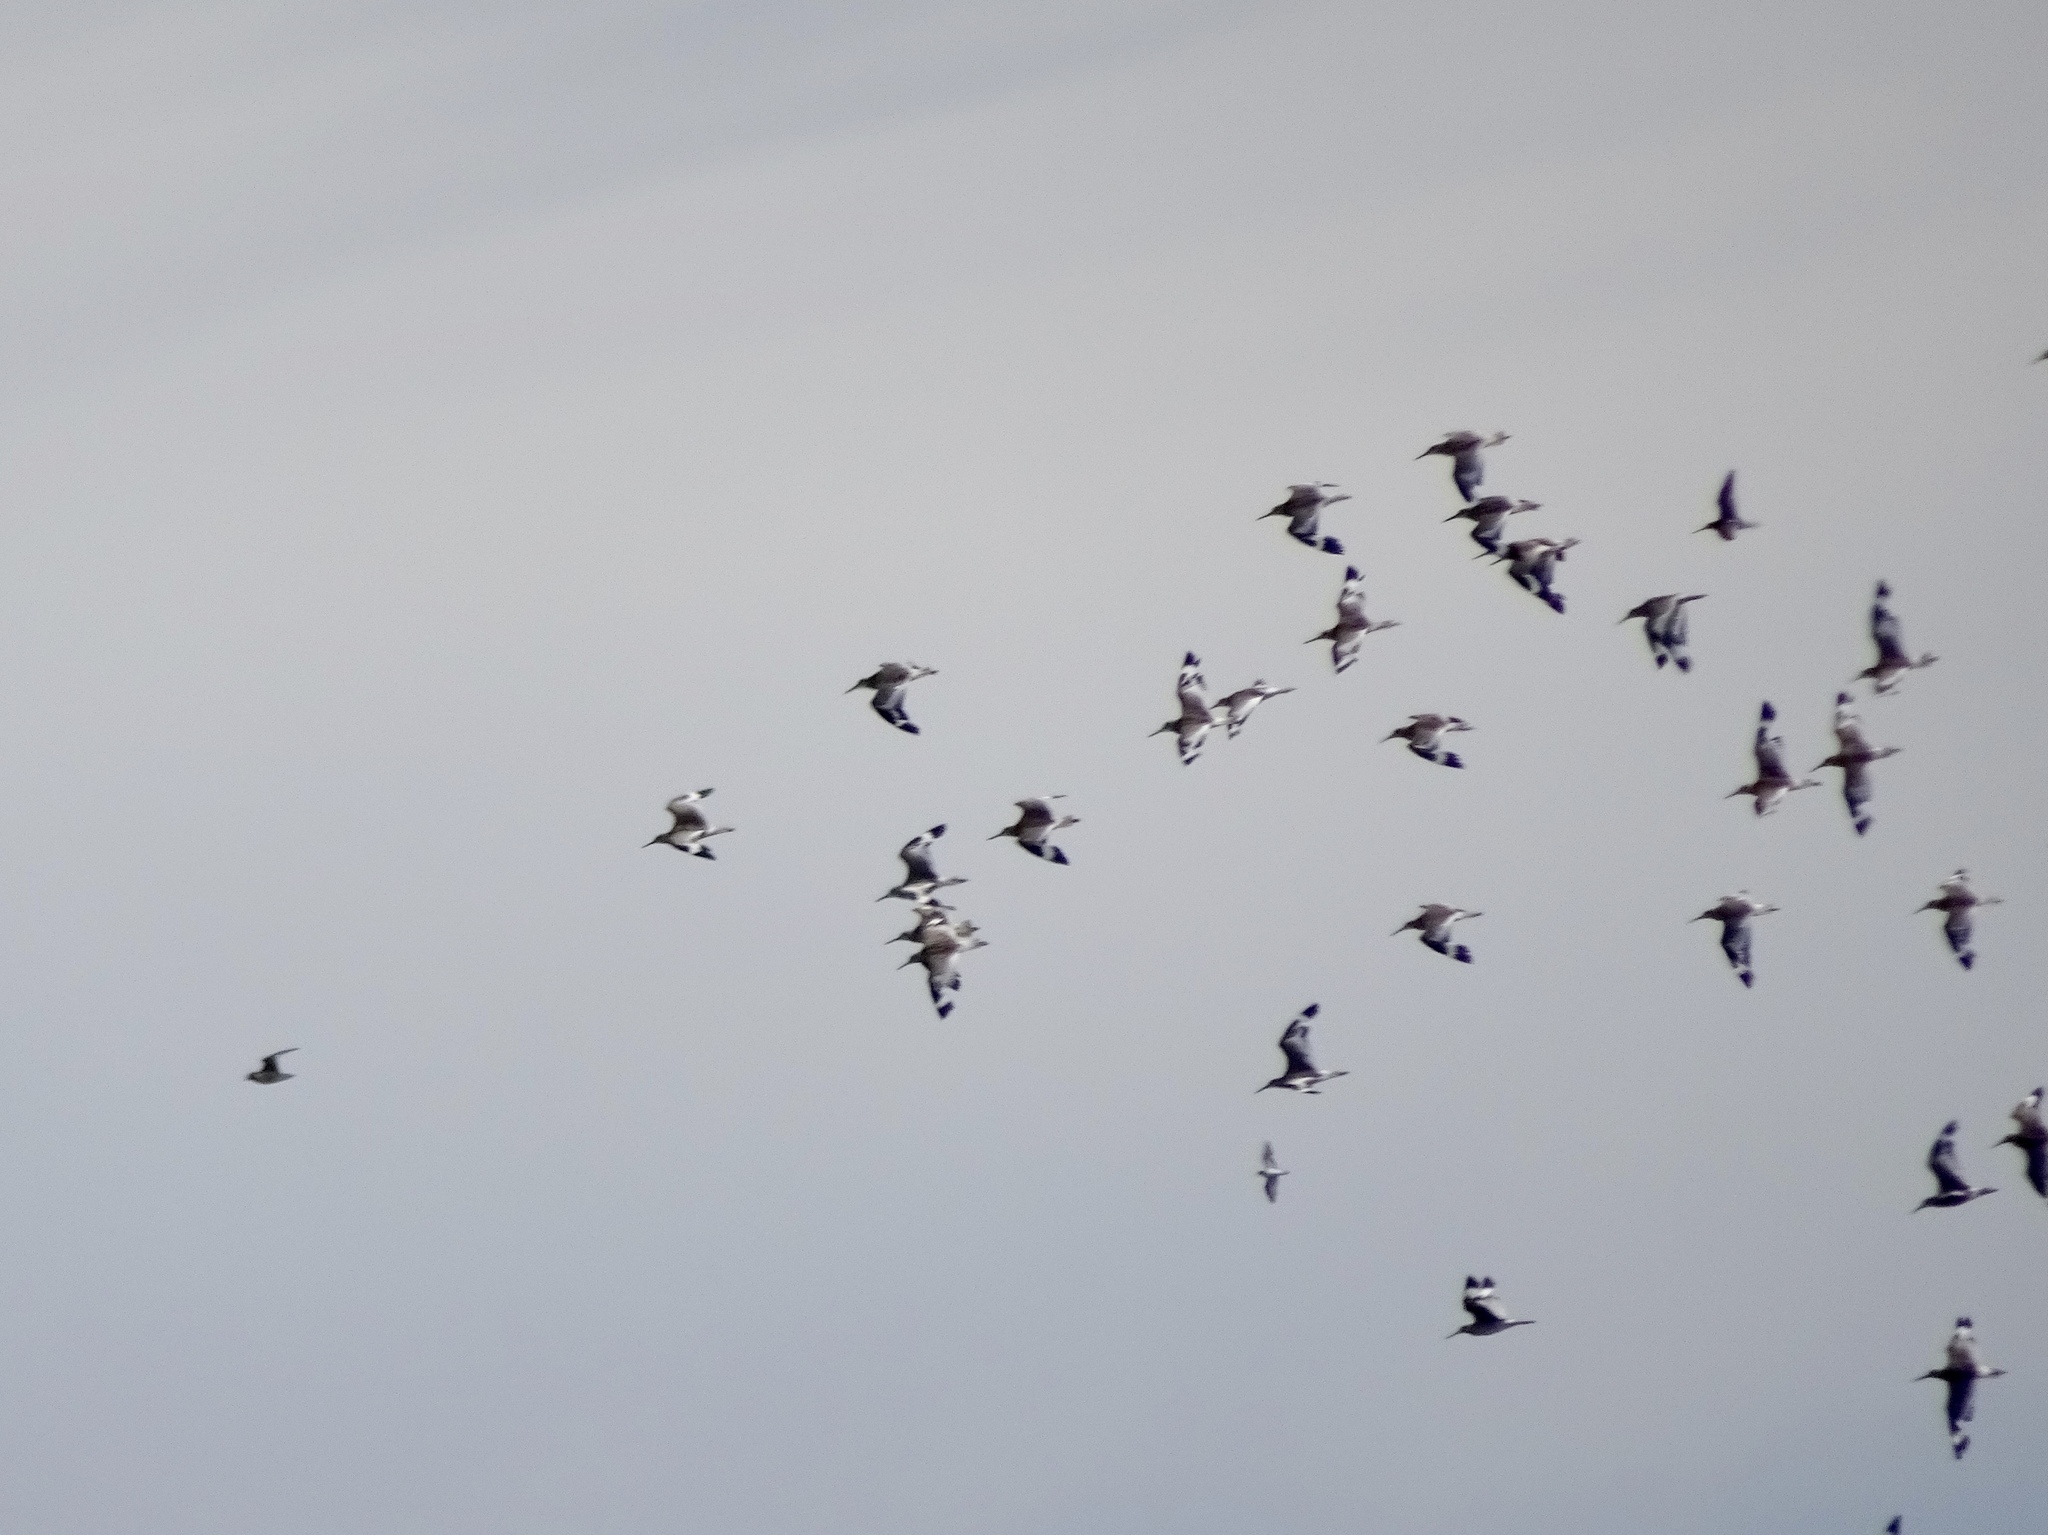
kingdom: Animalia
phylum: Chordata
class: Aves
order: Charadriiformes
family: Scolopacidae
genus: Tringa
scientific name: Tringa semipalmata
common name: Willet
